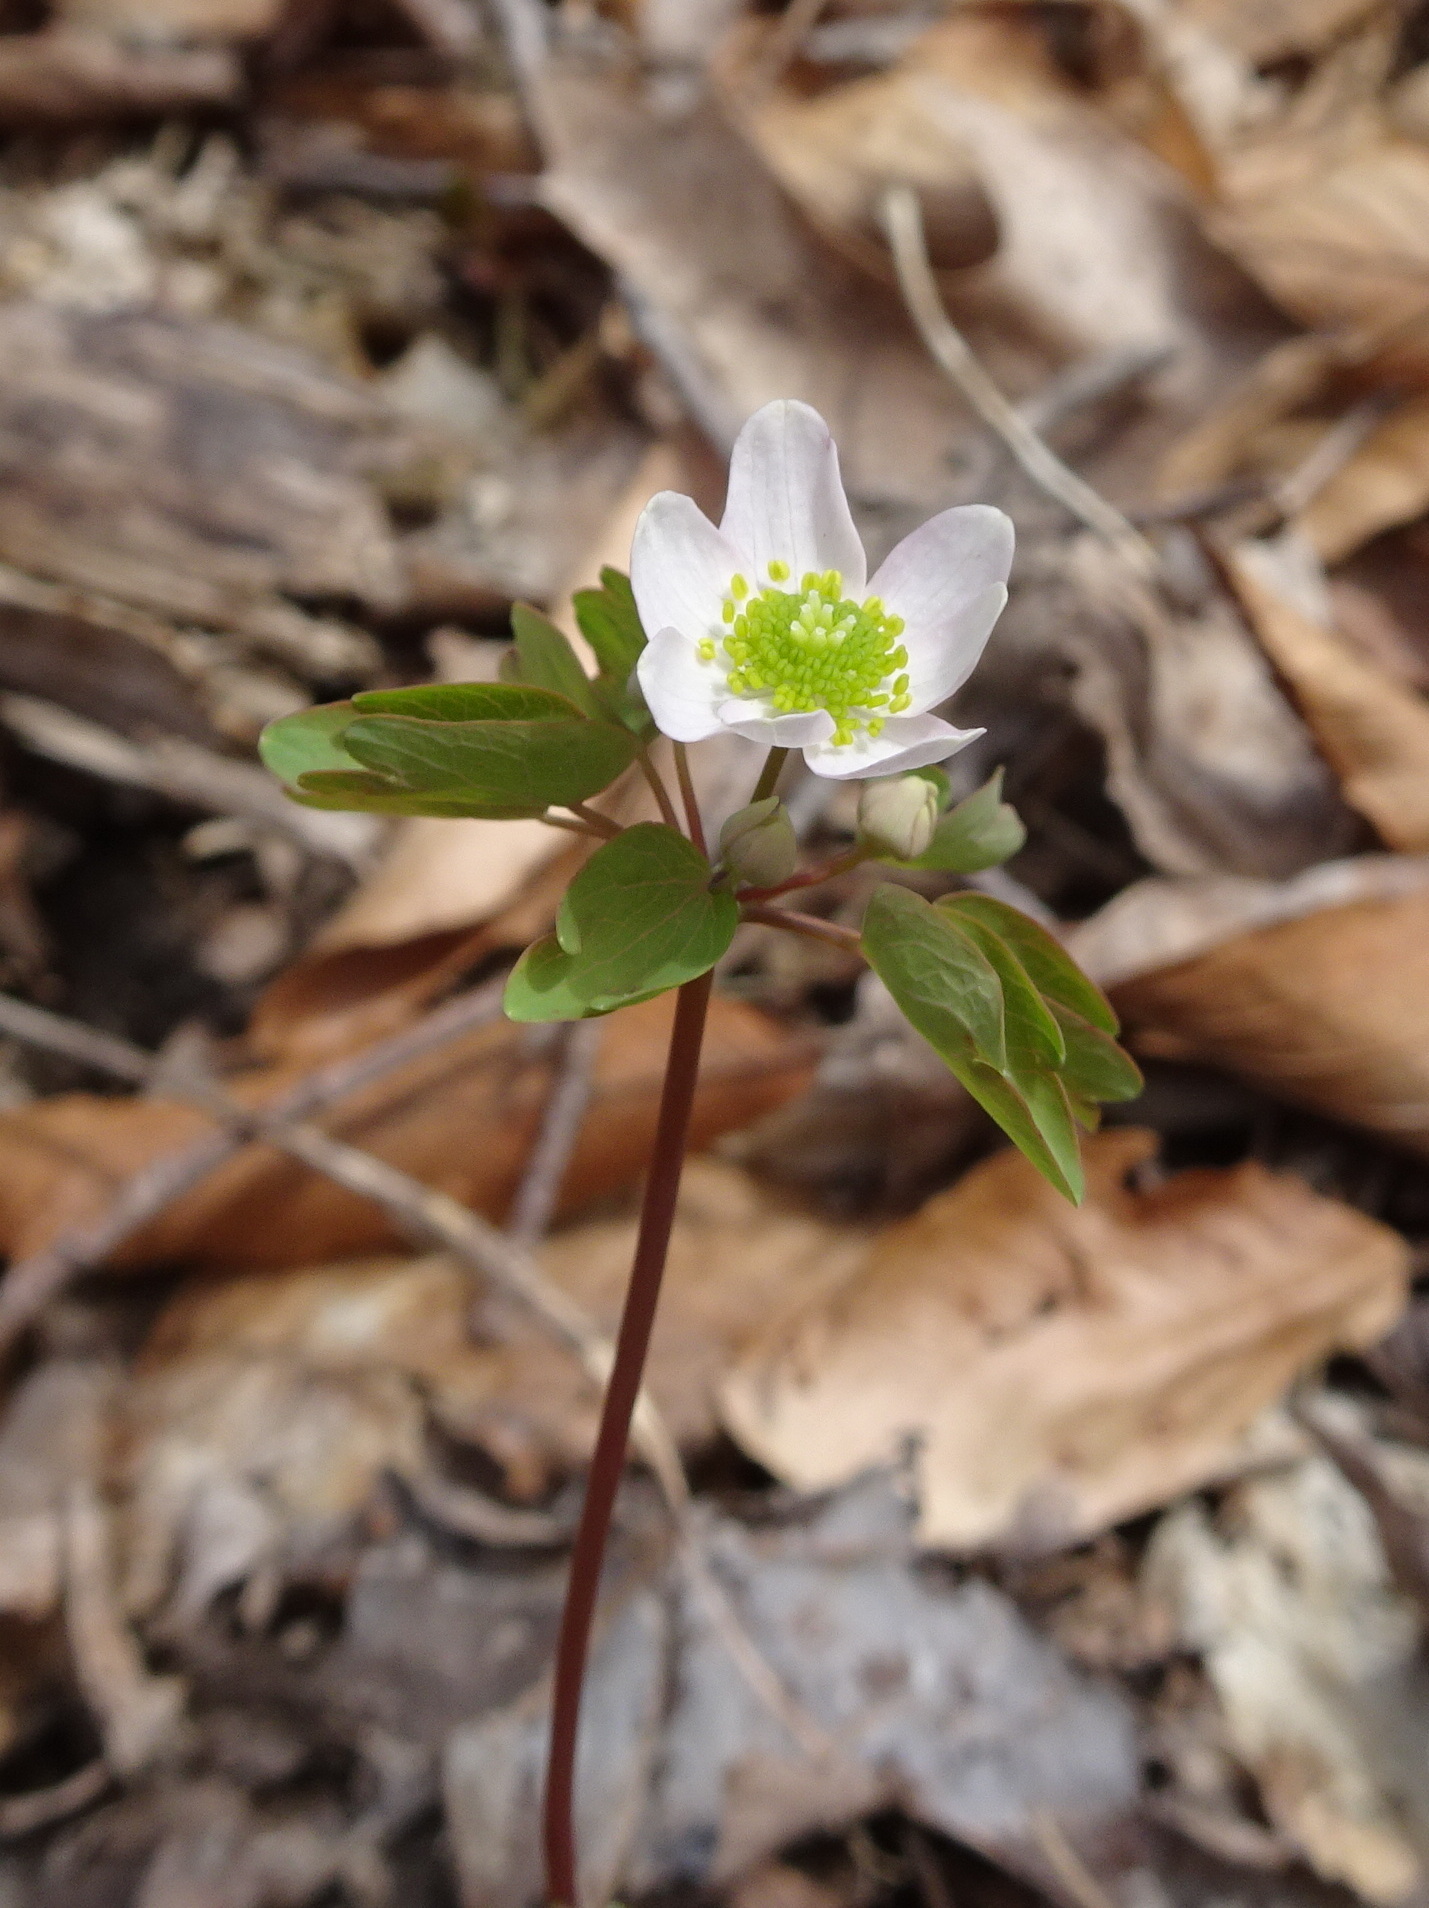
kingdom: Plantae
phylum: Tracheophyta
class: Magnoliopsida
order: Ranunculales
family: Ranunculaceae
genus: Thalictrum
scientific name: Thalictrum thalictroides
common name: Rue-anemone
